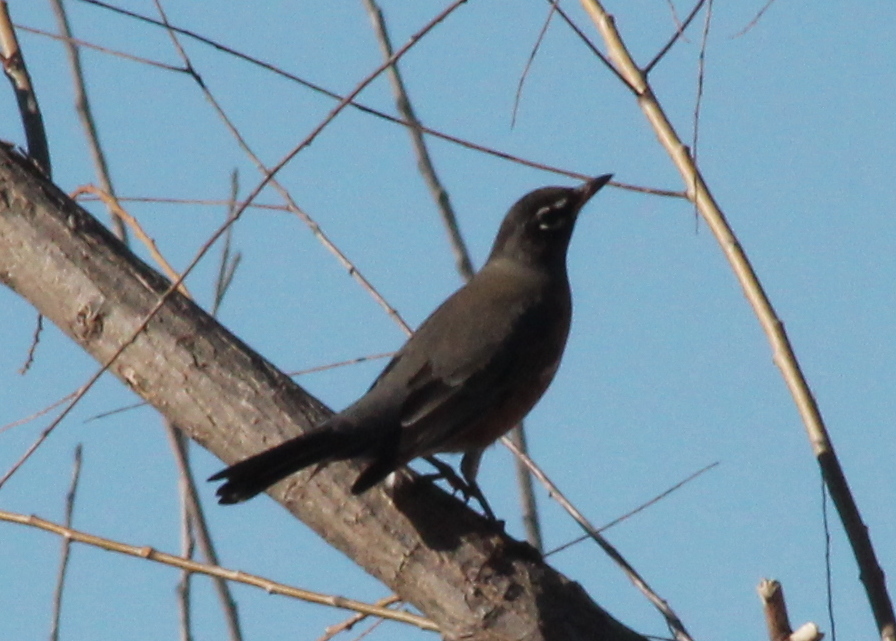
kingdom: Animalia
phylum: Chordata
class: Aves
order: Passeriformes
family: Turdidae
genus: Turdus
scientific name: Turdus migratorius
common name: American robin
